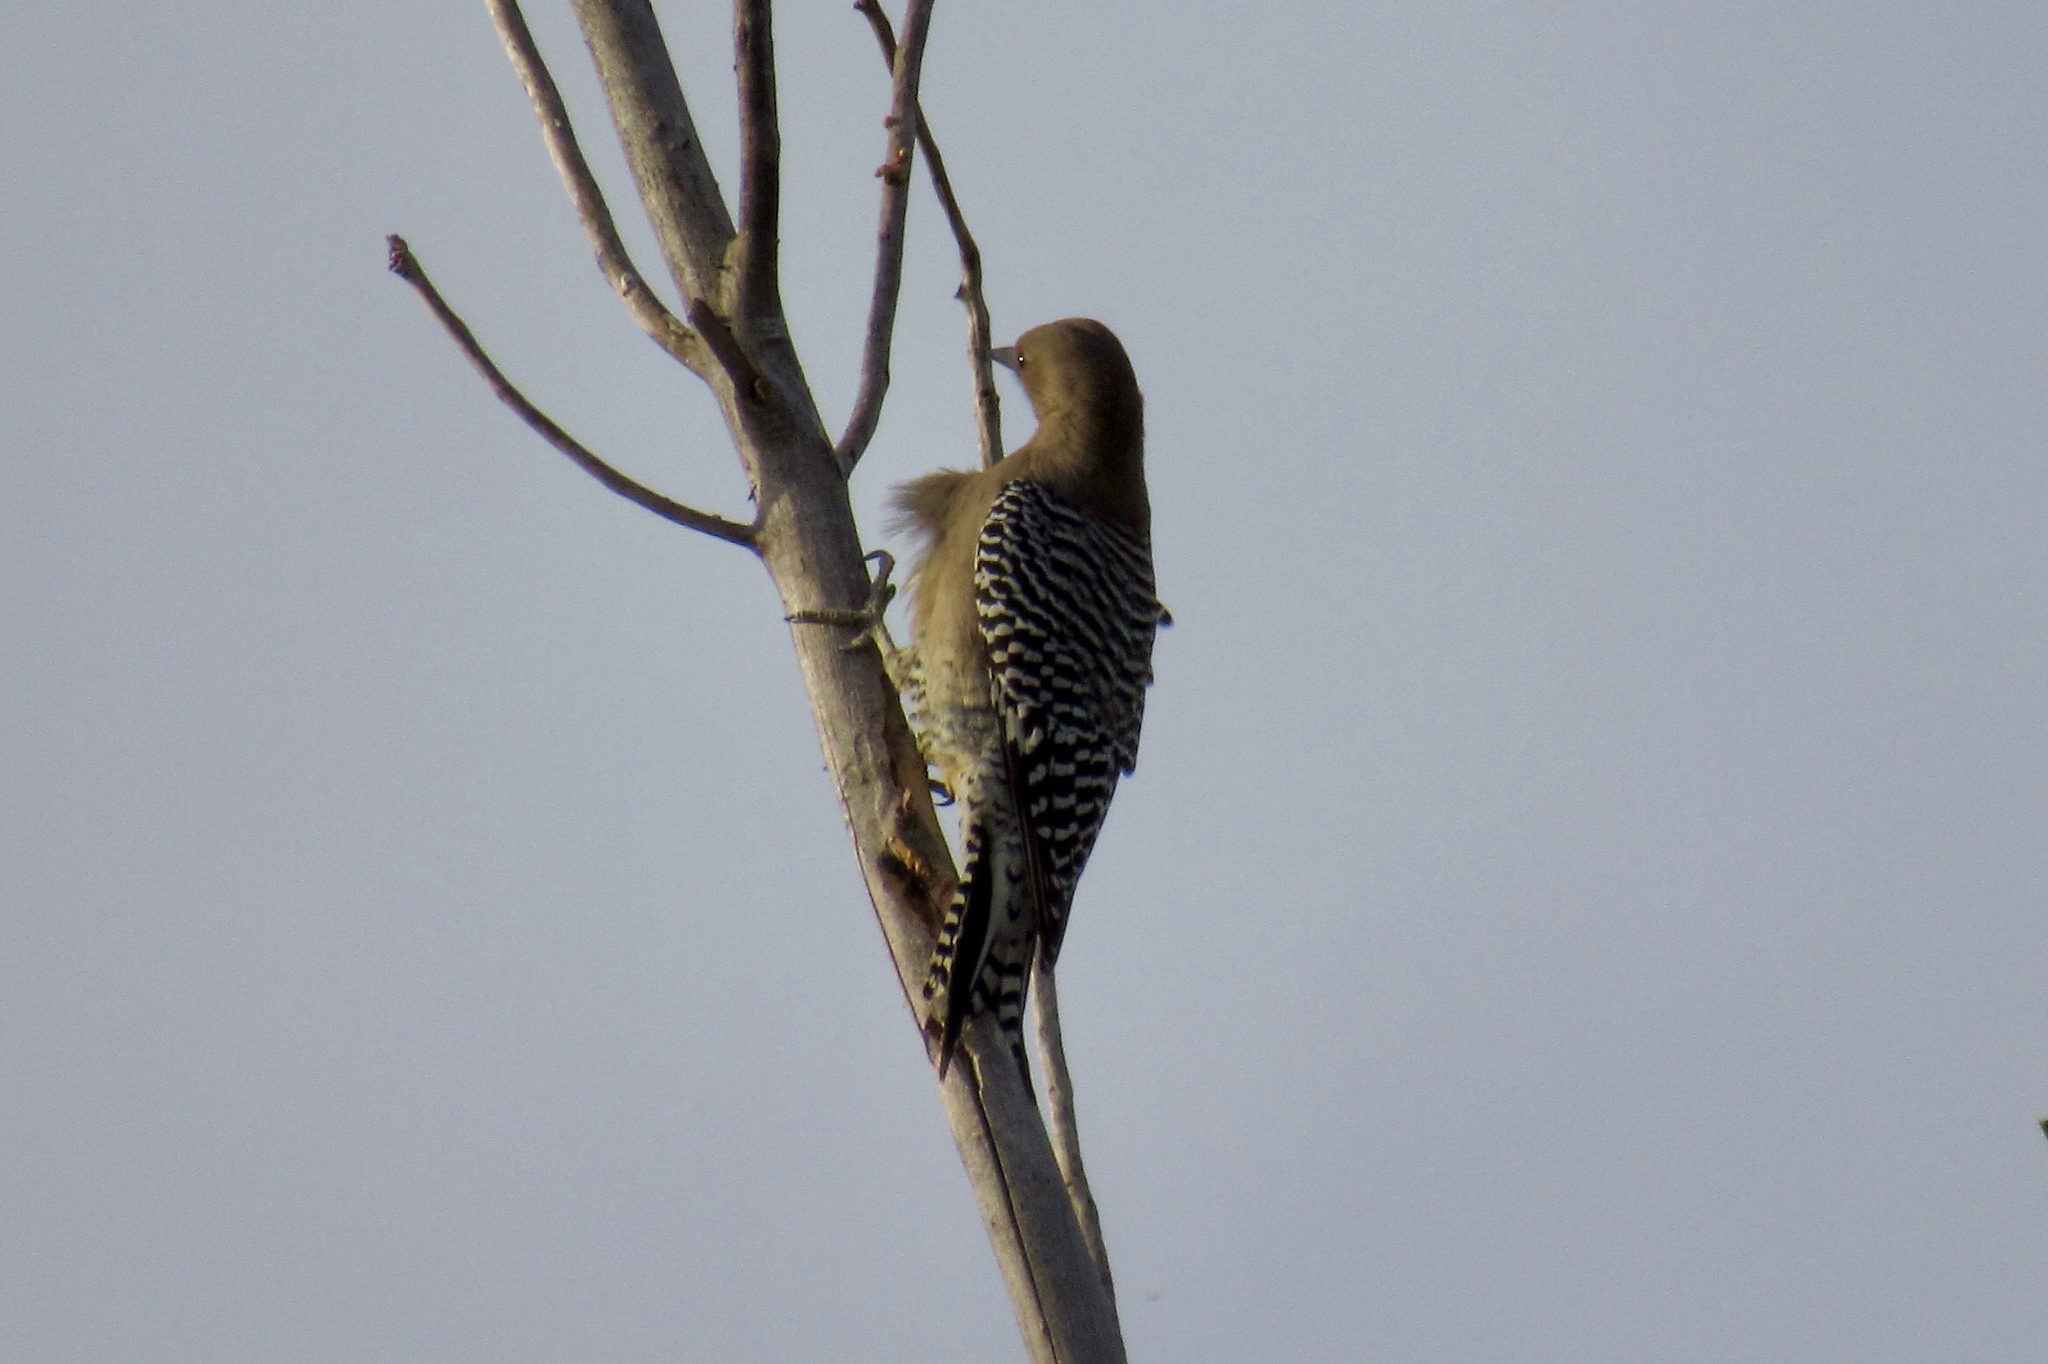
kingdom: Animalia
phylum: Chordata
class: Aves
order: Piciformes
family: Picidae
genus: Melanerpes
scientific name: Melanerpes uropygialis
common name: Gila woodpecker
